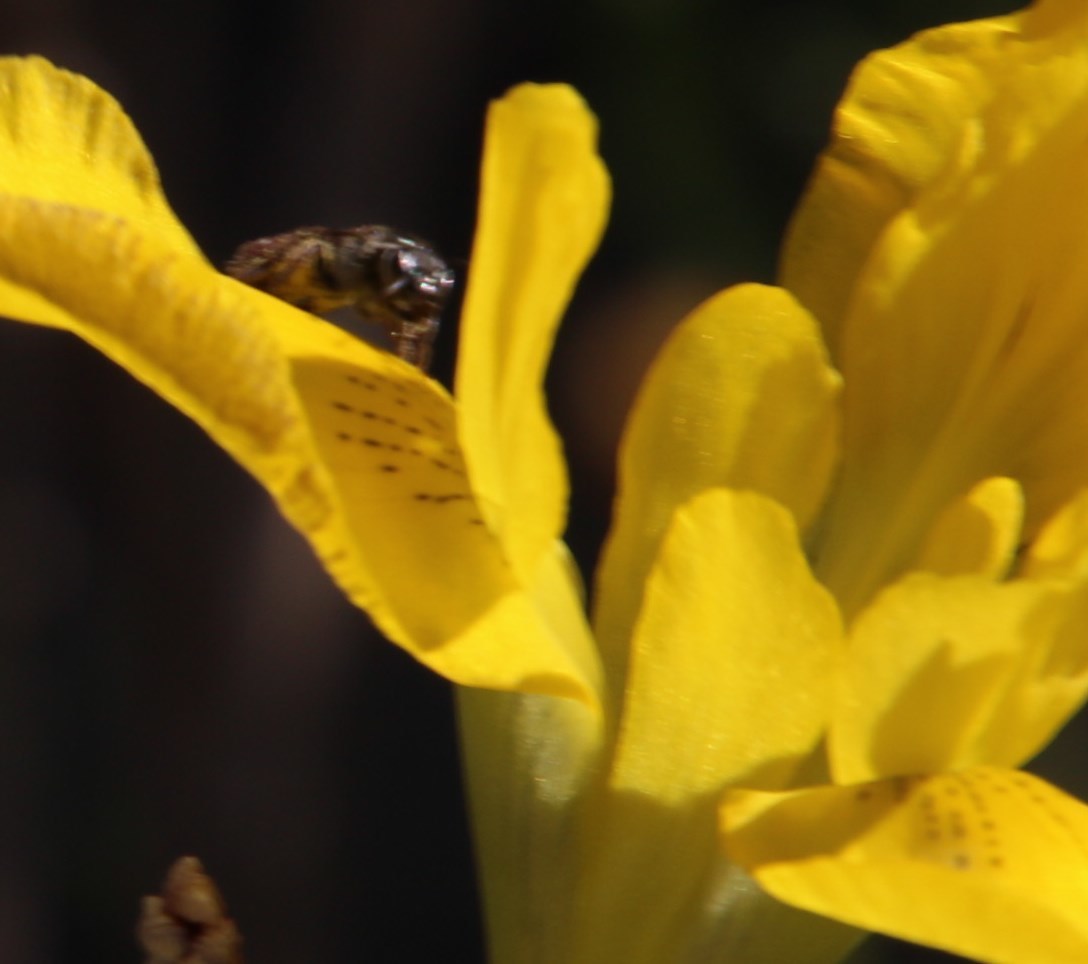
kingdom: Plantae
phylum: Tracheophyta
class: Liliopsida
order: Asparagales
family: Iridaceae
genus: Moraea
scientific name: Moraea neglecta
